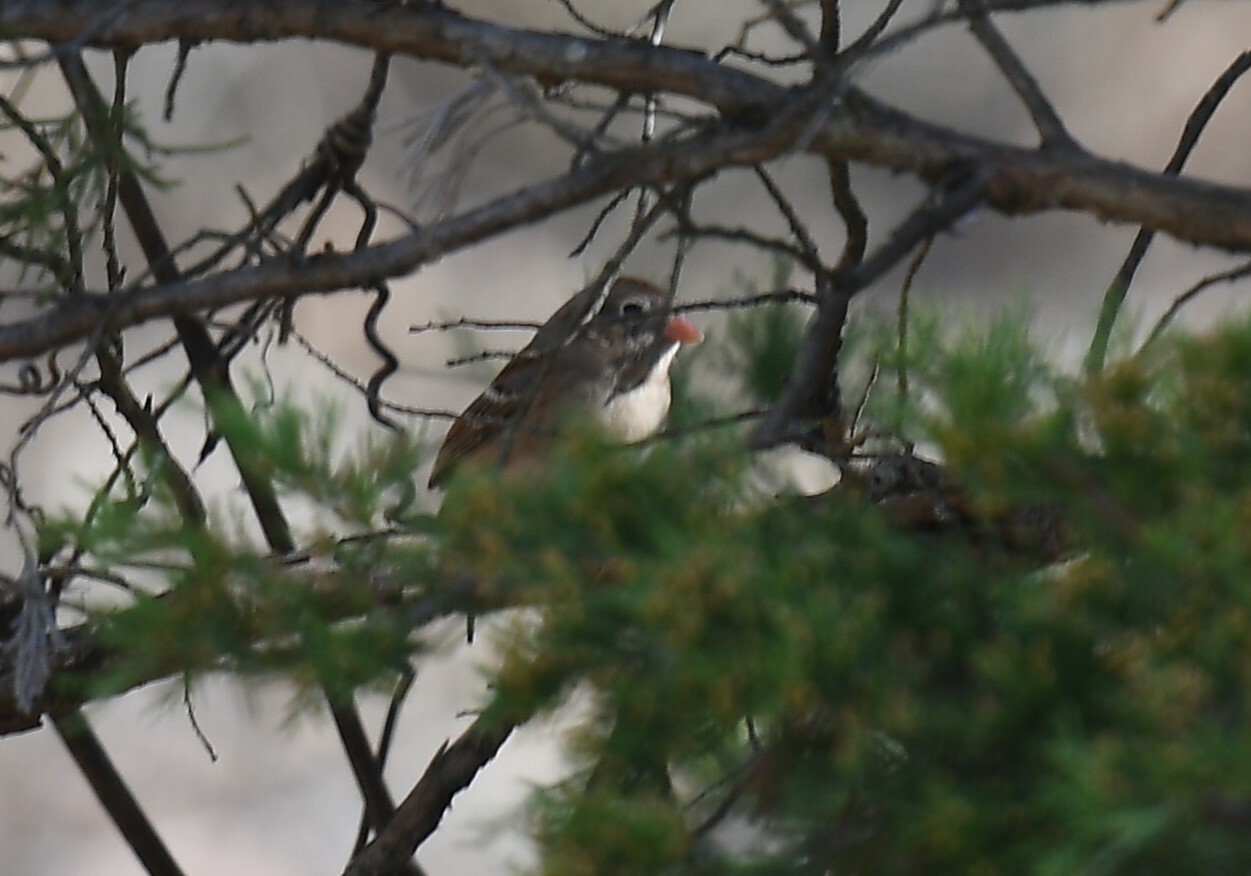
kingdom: Animalia
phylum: Chordata
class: Aves
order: Passeriformes
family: Passerellidae
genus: Spizella
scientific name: Spizella pusilla
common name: Field sparrow
